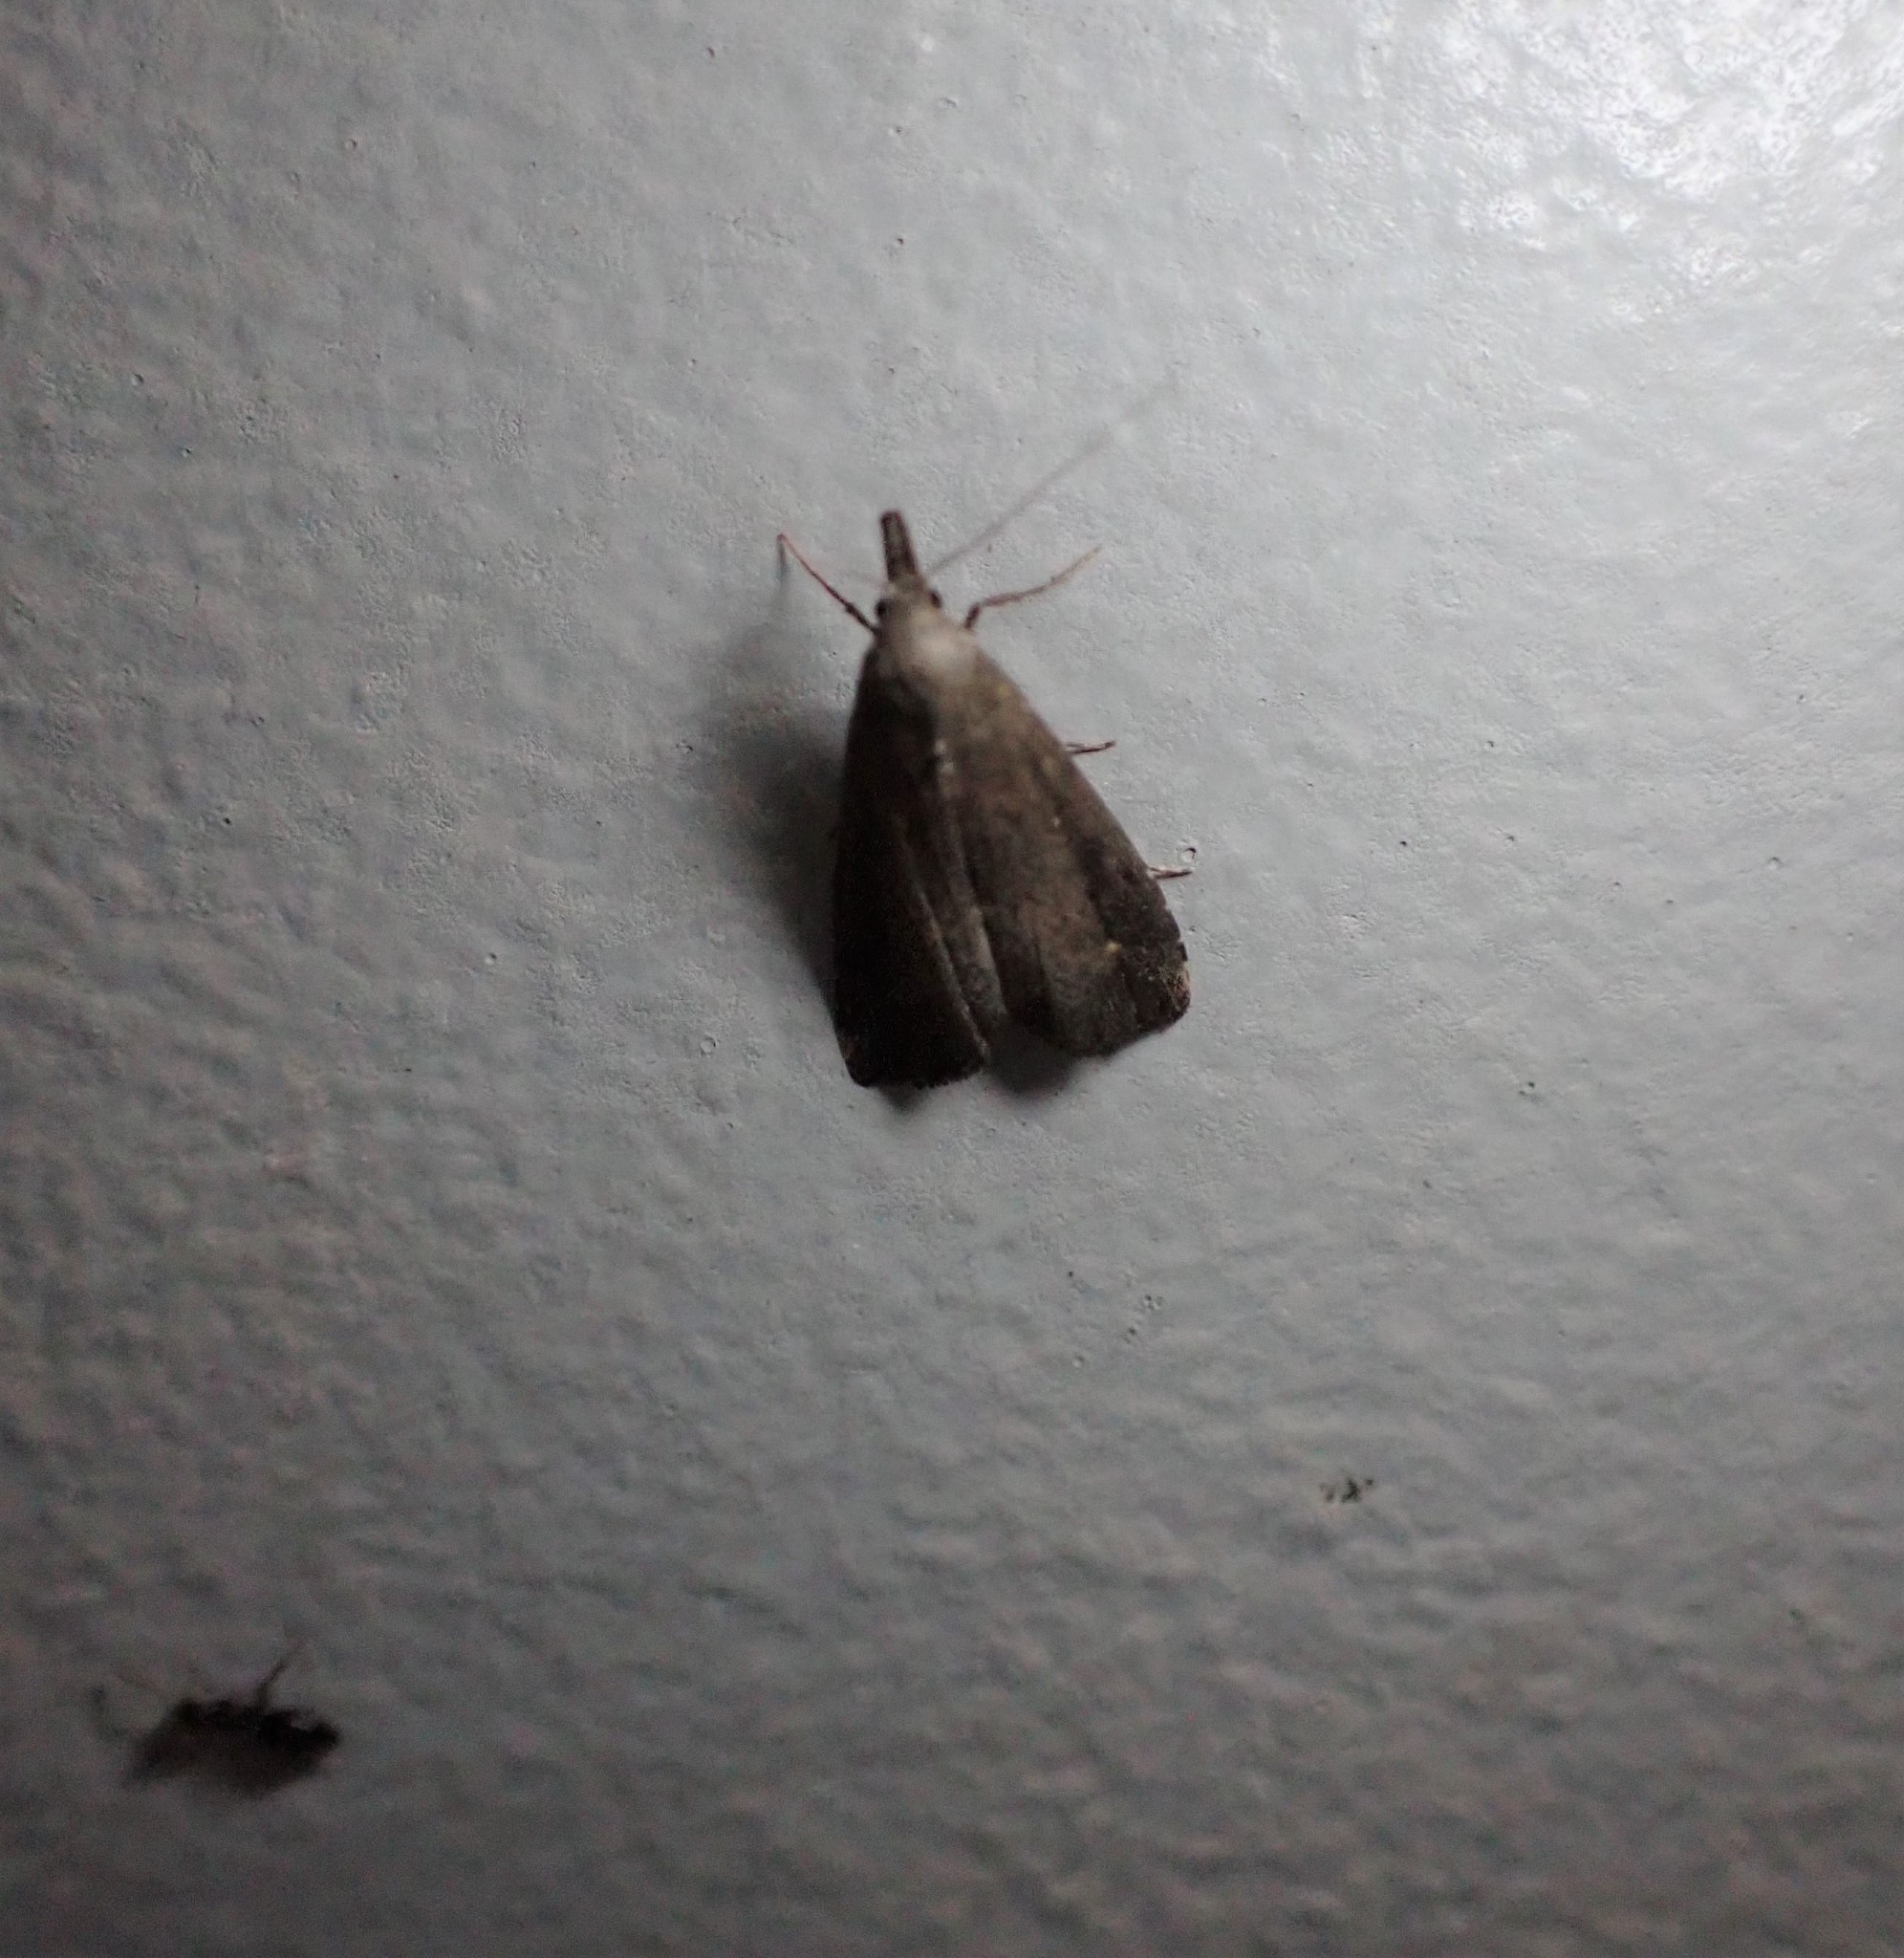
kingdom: Animalia
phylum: Arthropoda
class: Insecta
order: Lepidoptera
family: Erebidae
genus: Schrankia
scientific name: Schrankia costaestrigalis
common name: Pinion-streaked snout
